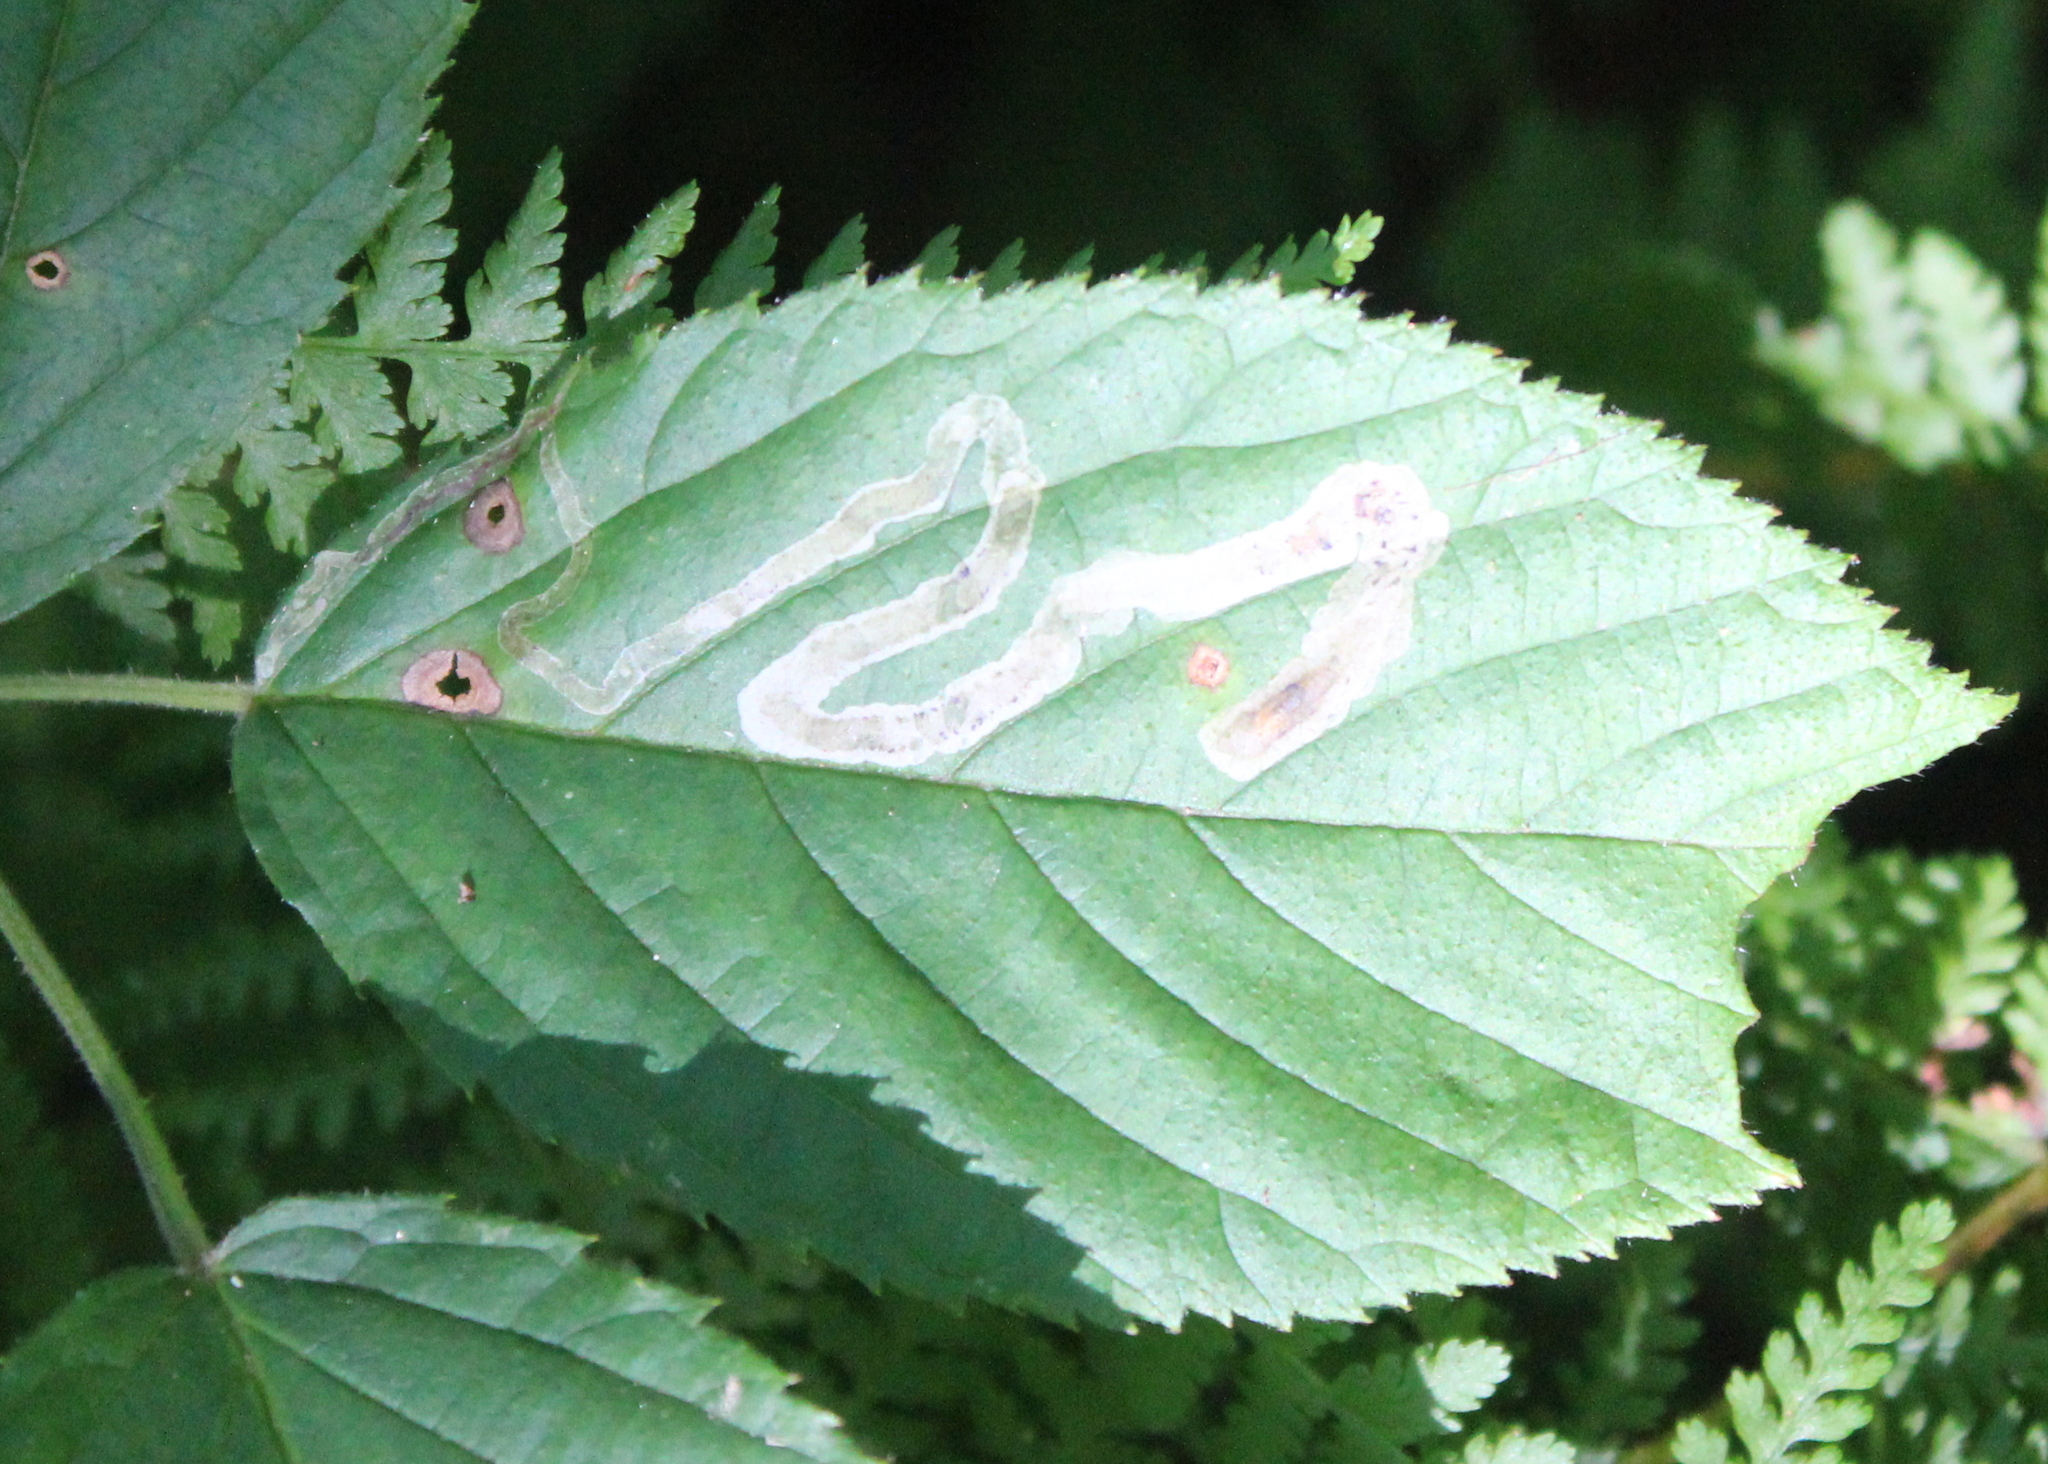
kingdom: Animalia
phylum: Arthropoda
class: Insecta
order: Diptera
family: Agromyzidae
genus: Agromyza
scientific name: Agromyza vockerothi
